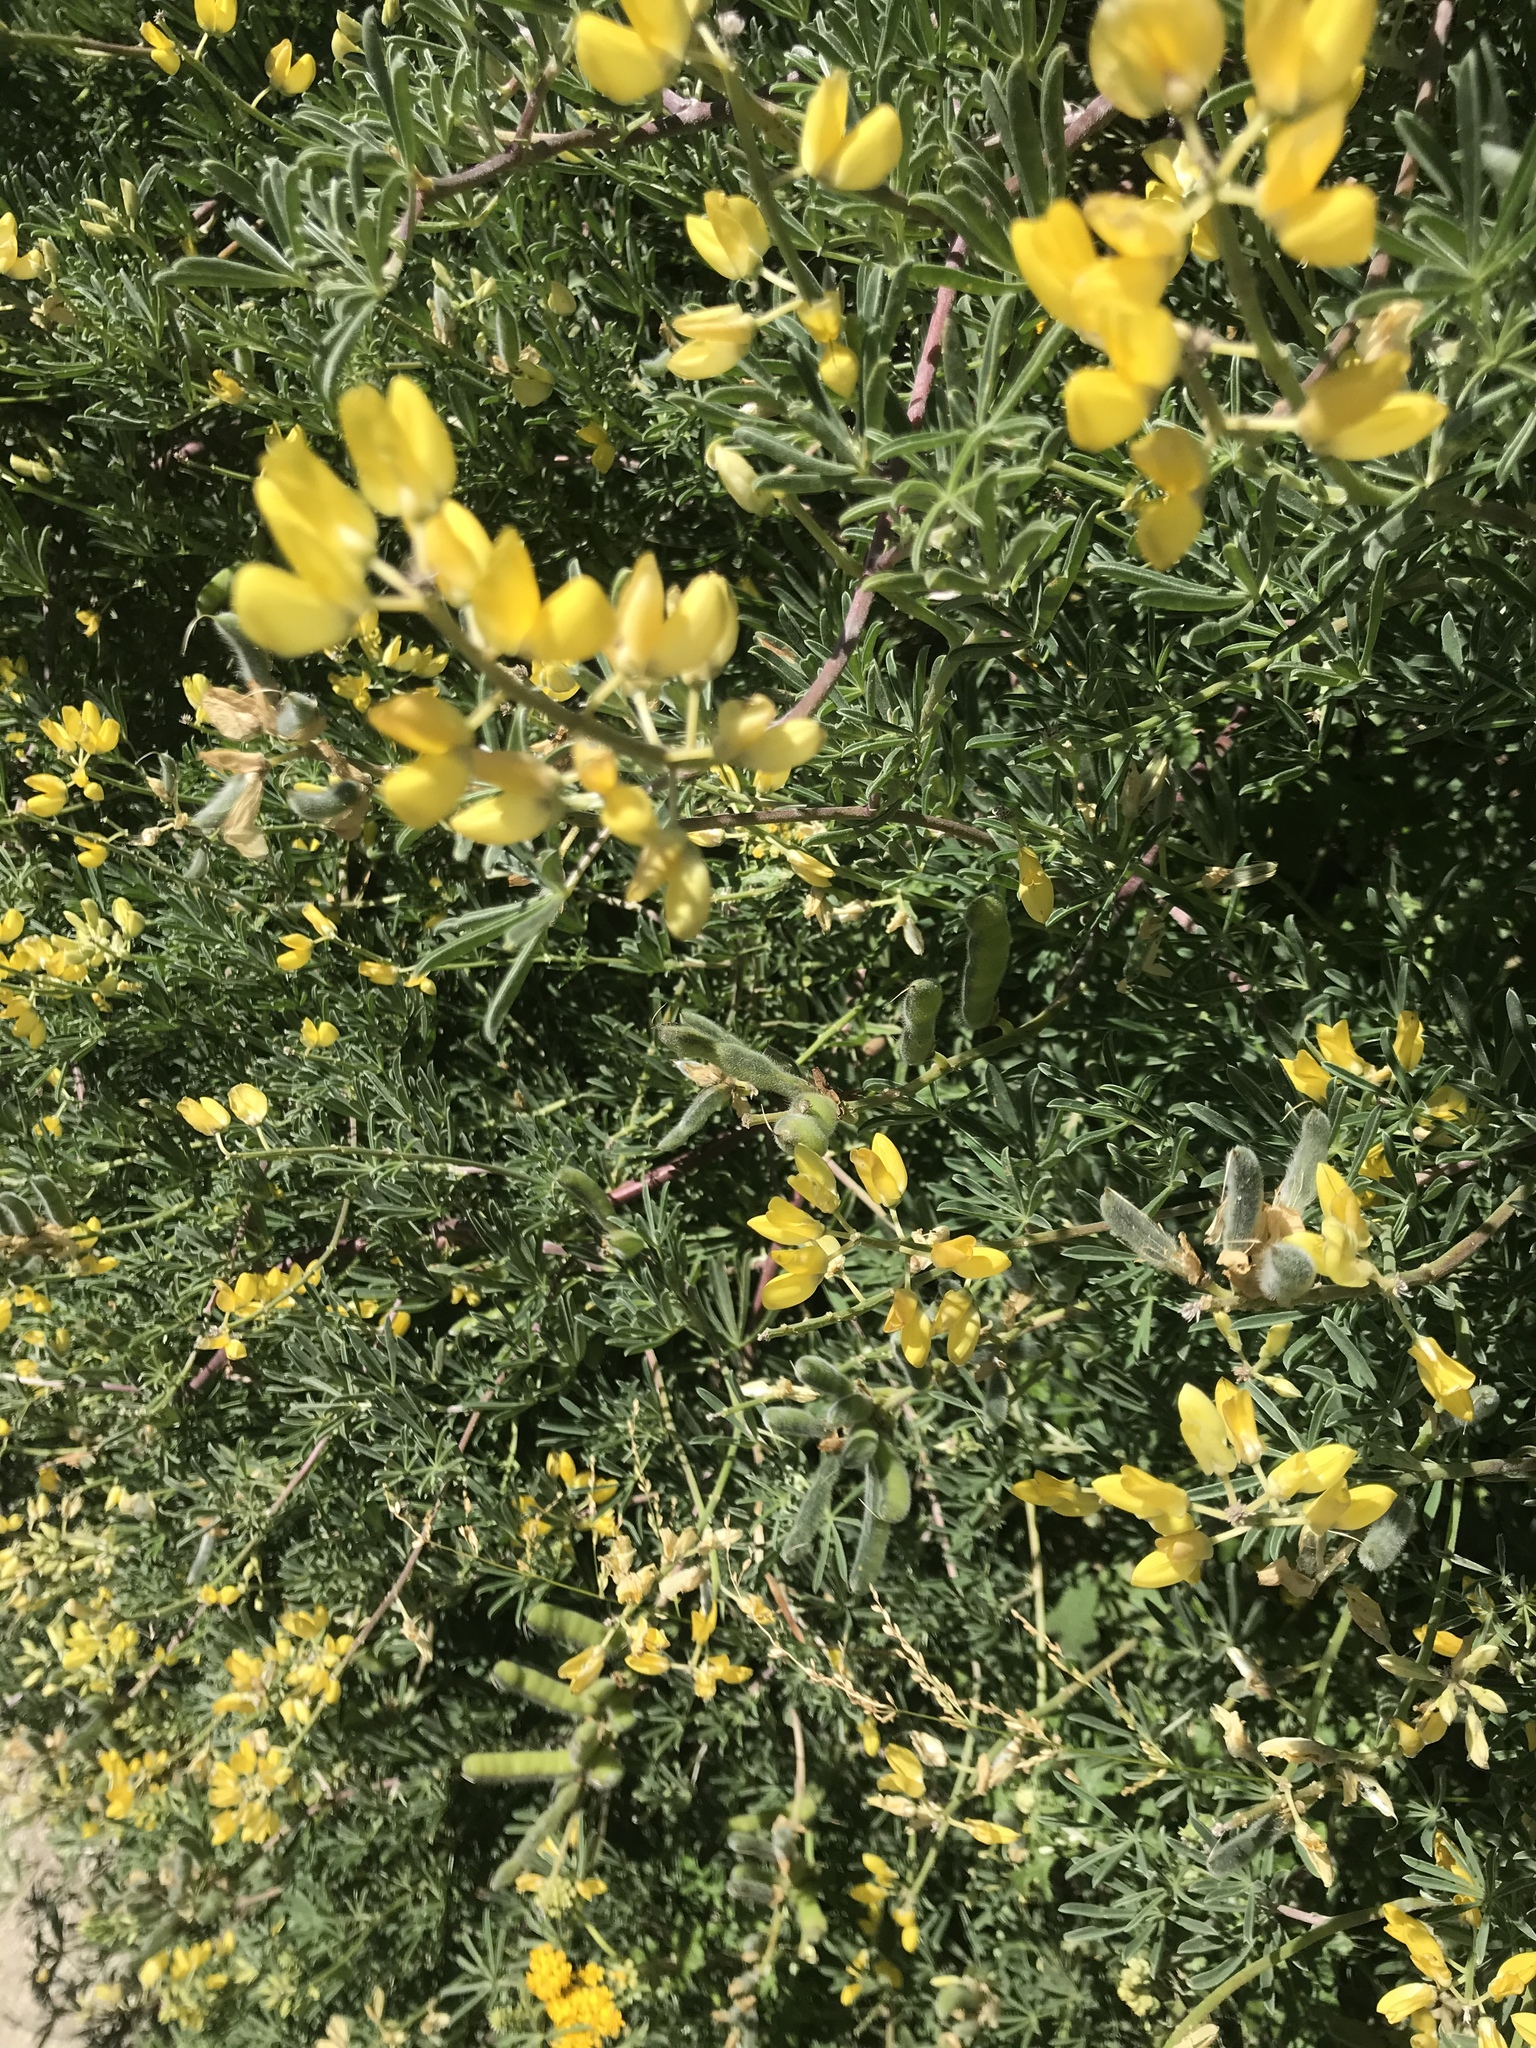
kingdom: Plantae
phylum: Tracheophyta
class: Magnoliopsida
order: Fabales
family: Fabaceae
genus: Lupinus
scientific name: Lupinus arboreus
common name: Yellow bush lupine
